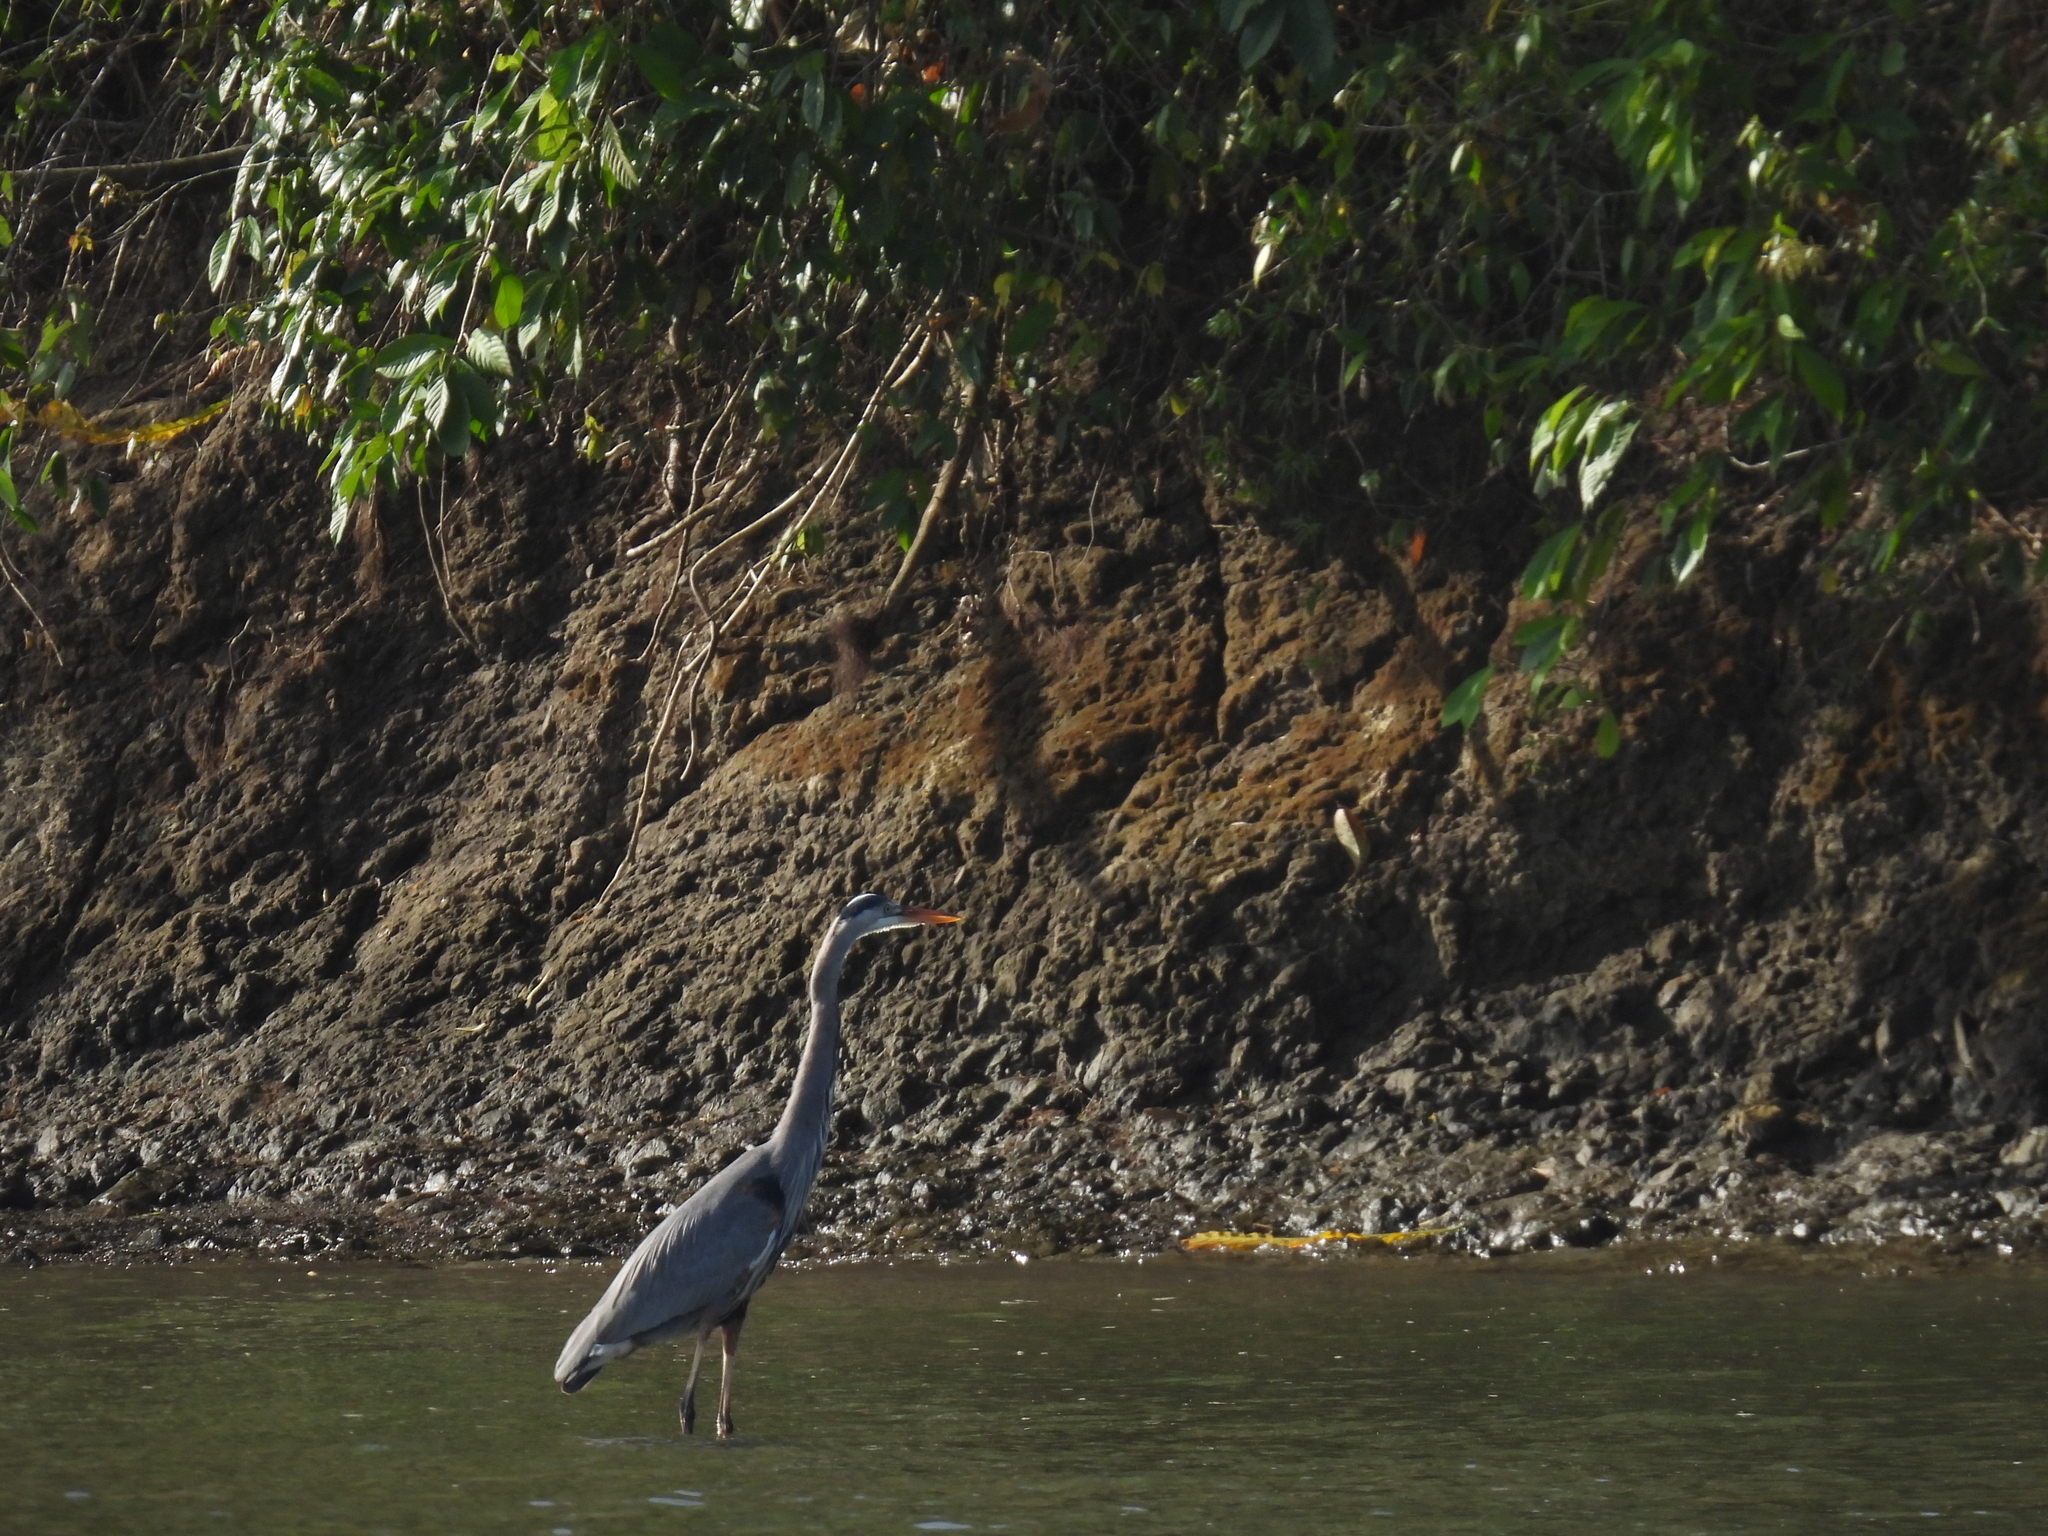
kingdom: Animalia
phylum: Chordata
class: Aves
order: Pelecaniformes
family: Ardeidae
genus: Ardea
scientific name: Ardea herodias
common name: Great blue heron
